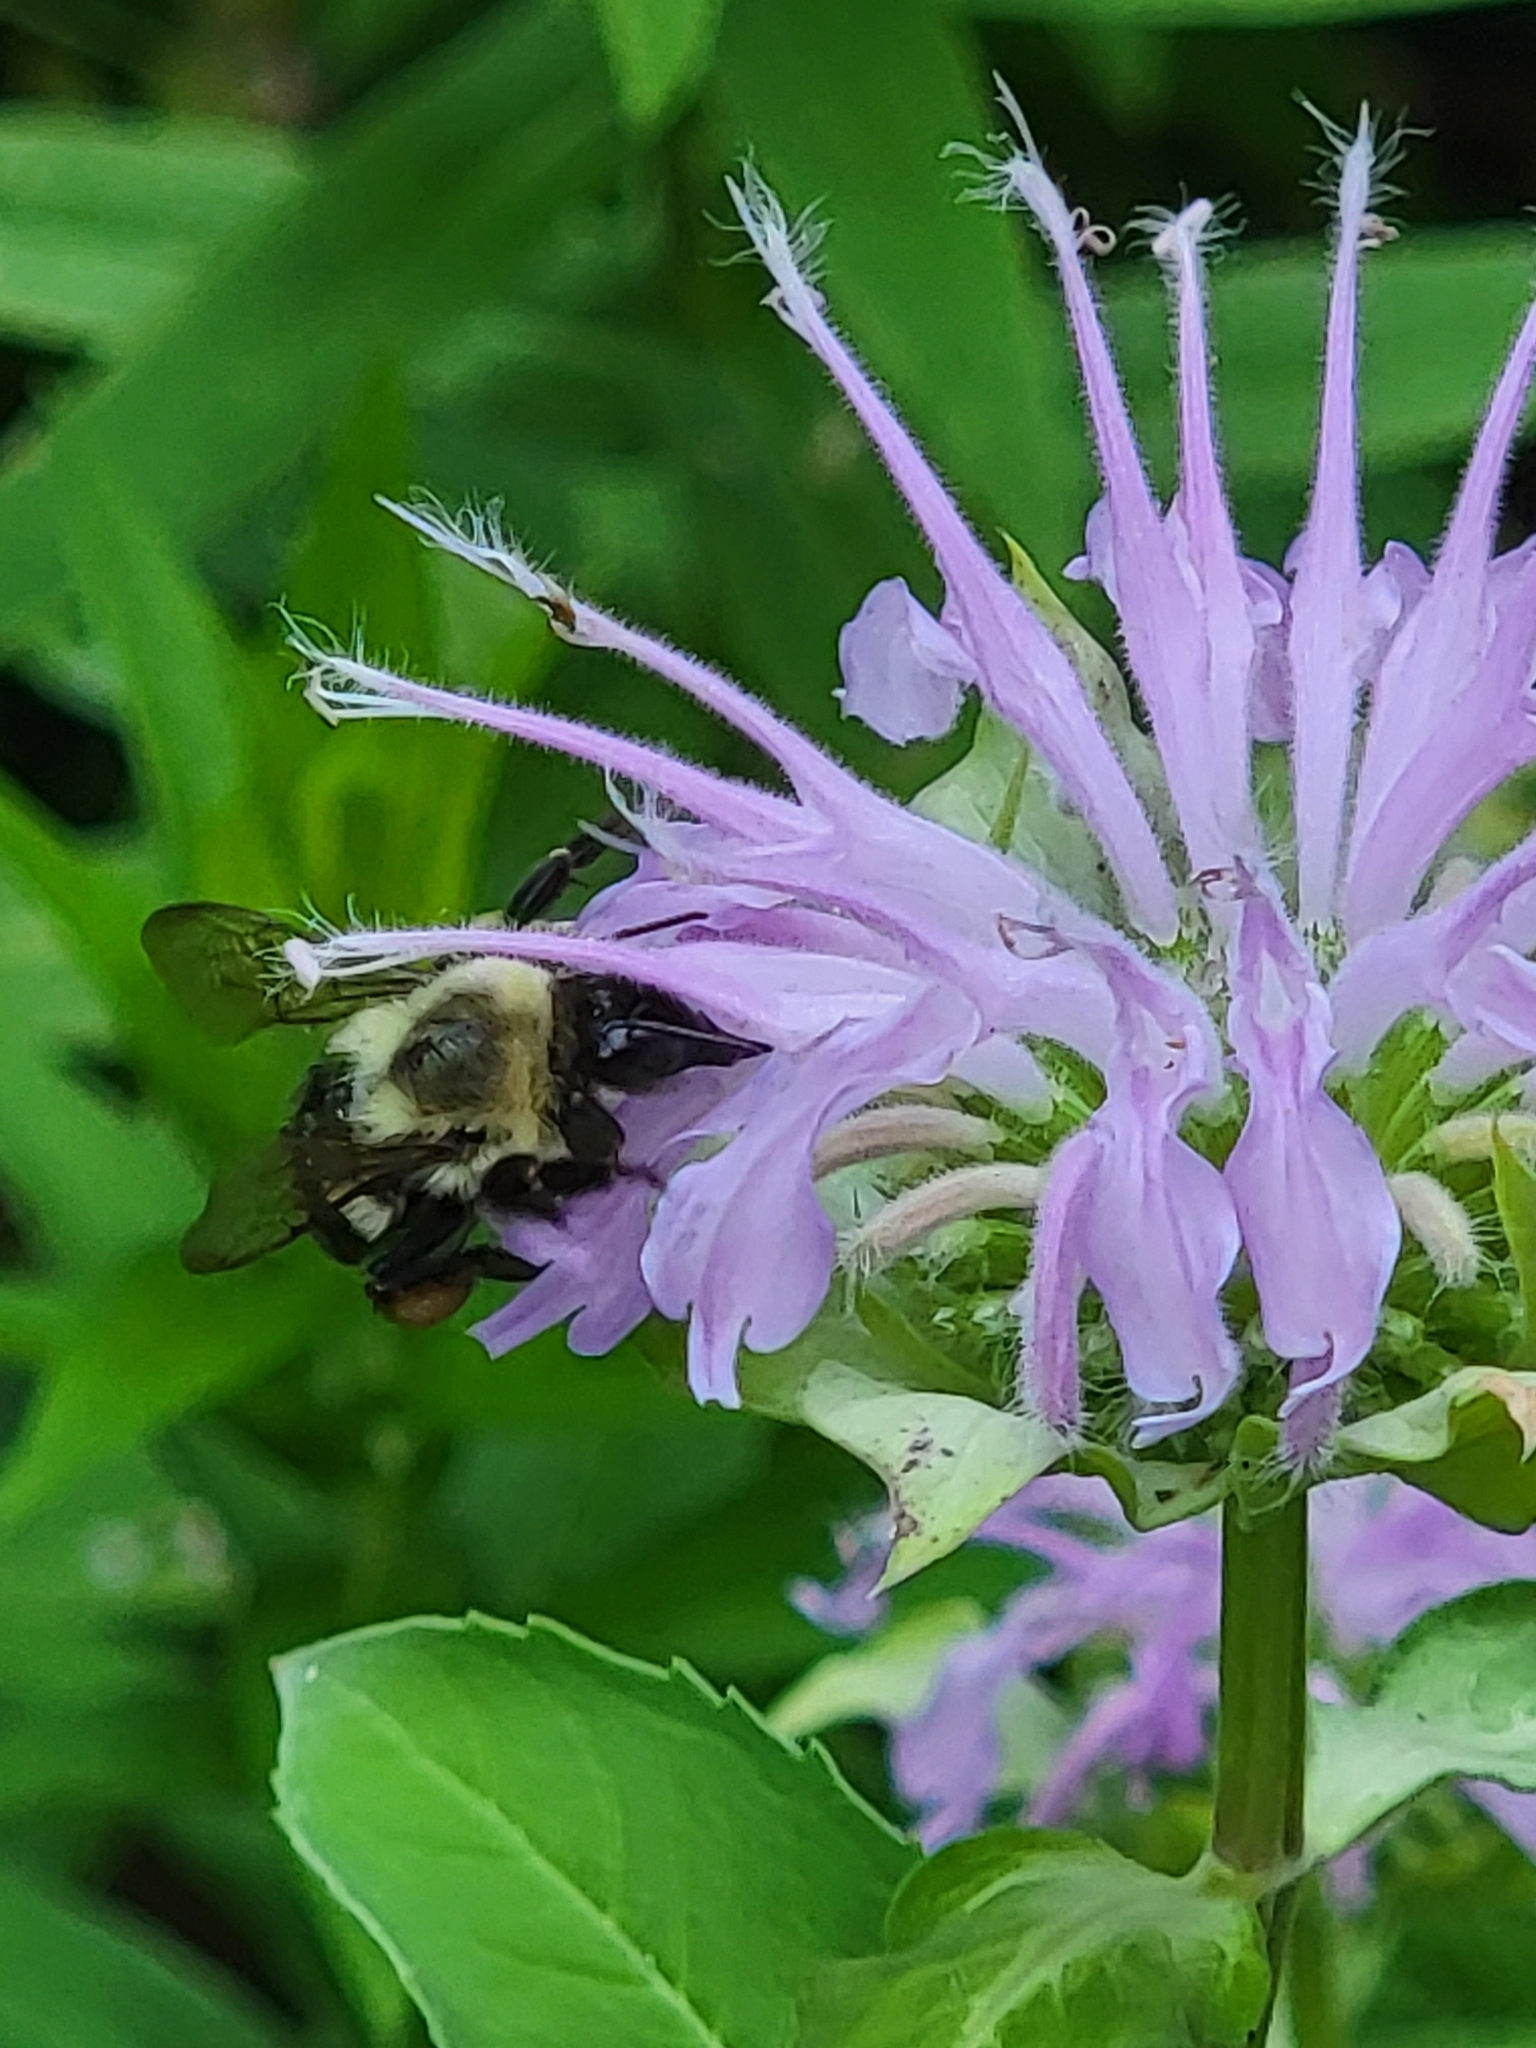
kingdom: Animalia
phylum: Arthropoda
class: Insecta
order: Hymenoptera
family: Apidae
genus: Bombus
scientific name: Bombus impatiens
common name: Common eastern bumble bee
